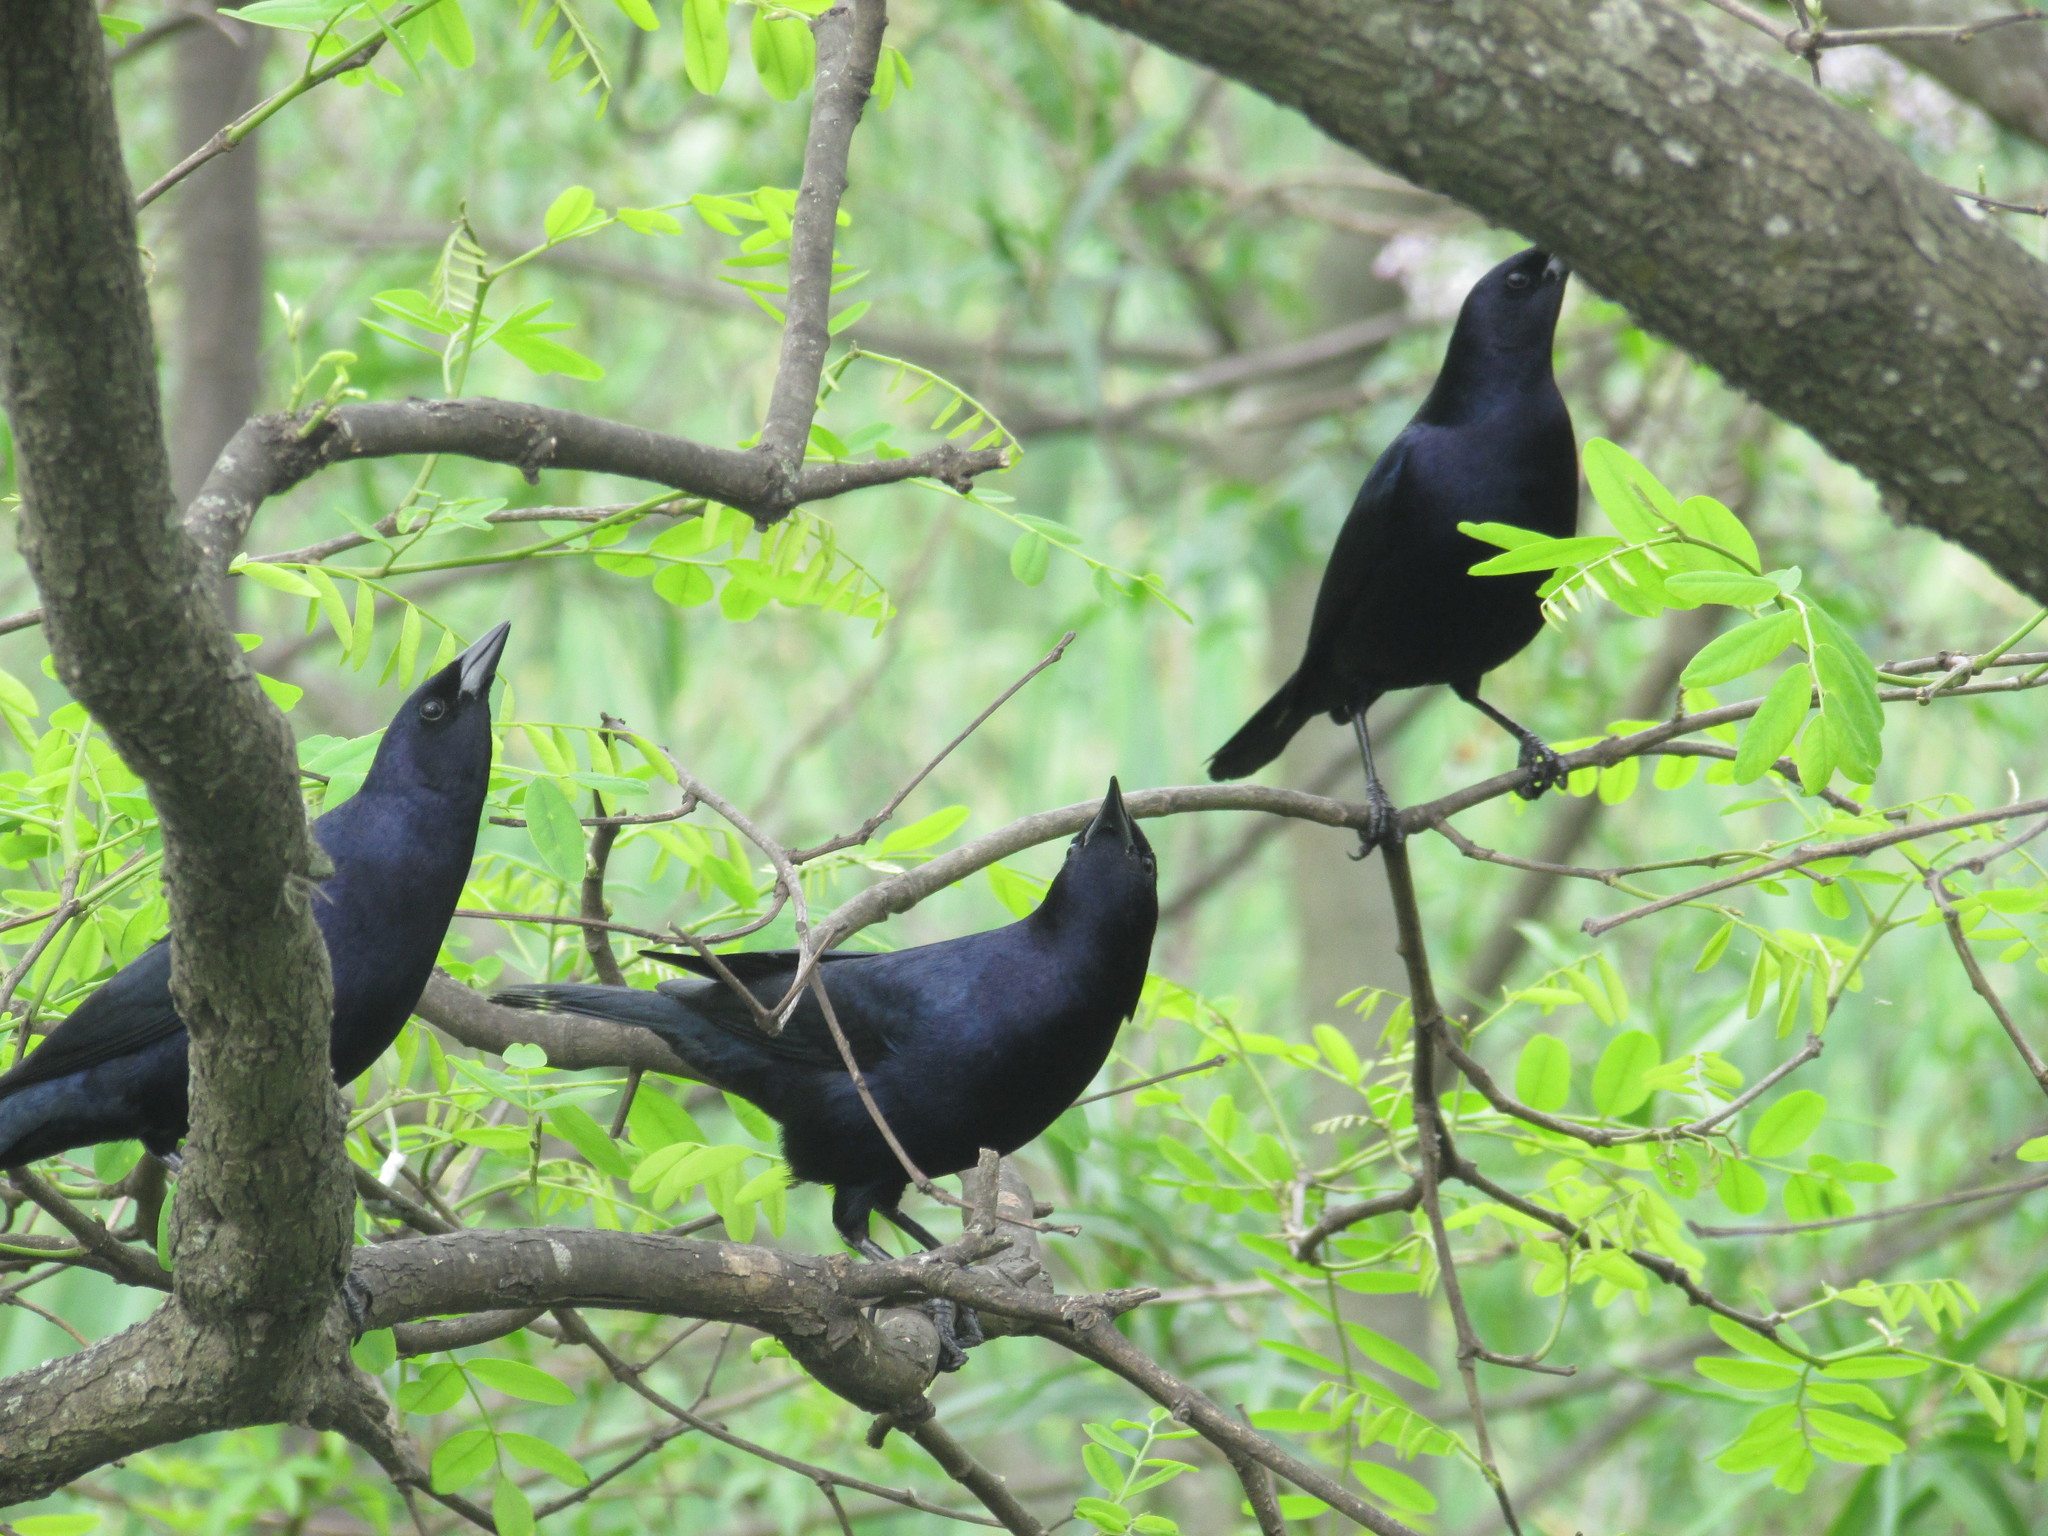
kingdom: Animalia
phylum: Chordata
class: Aves
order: Passeriformes
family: Icteridae
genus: Molothrus
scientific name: Molothrus bonariensis
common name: Shiny cowbird
